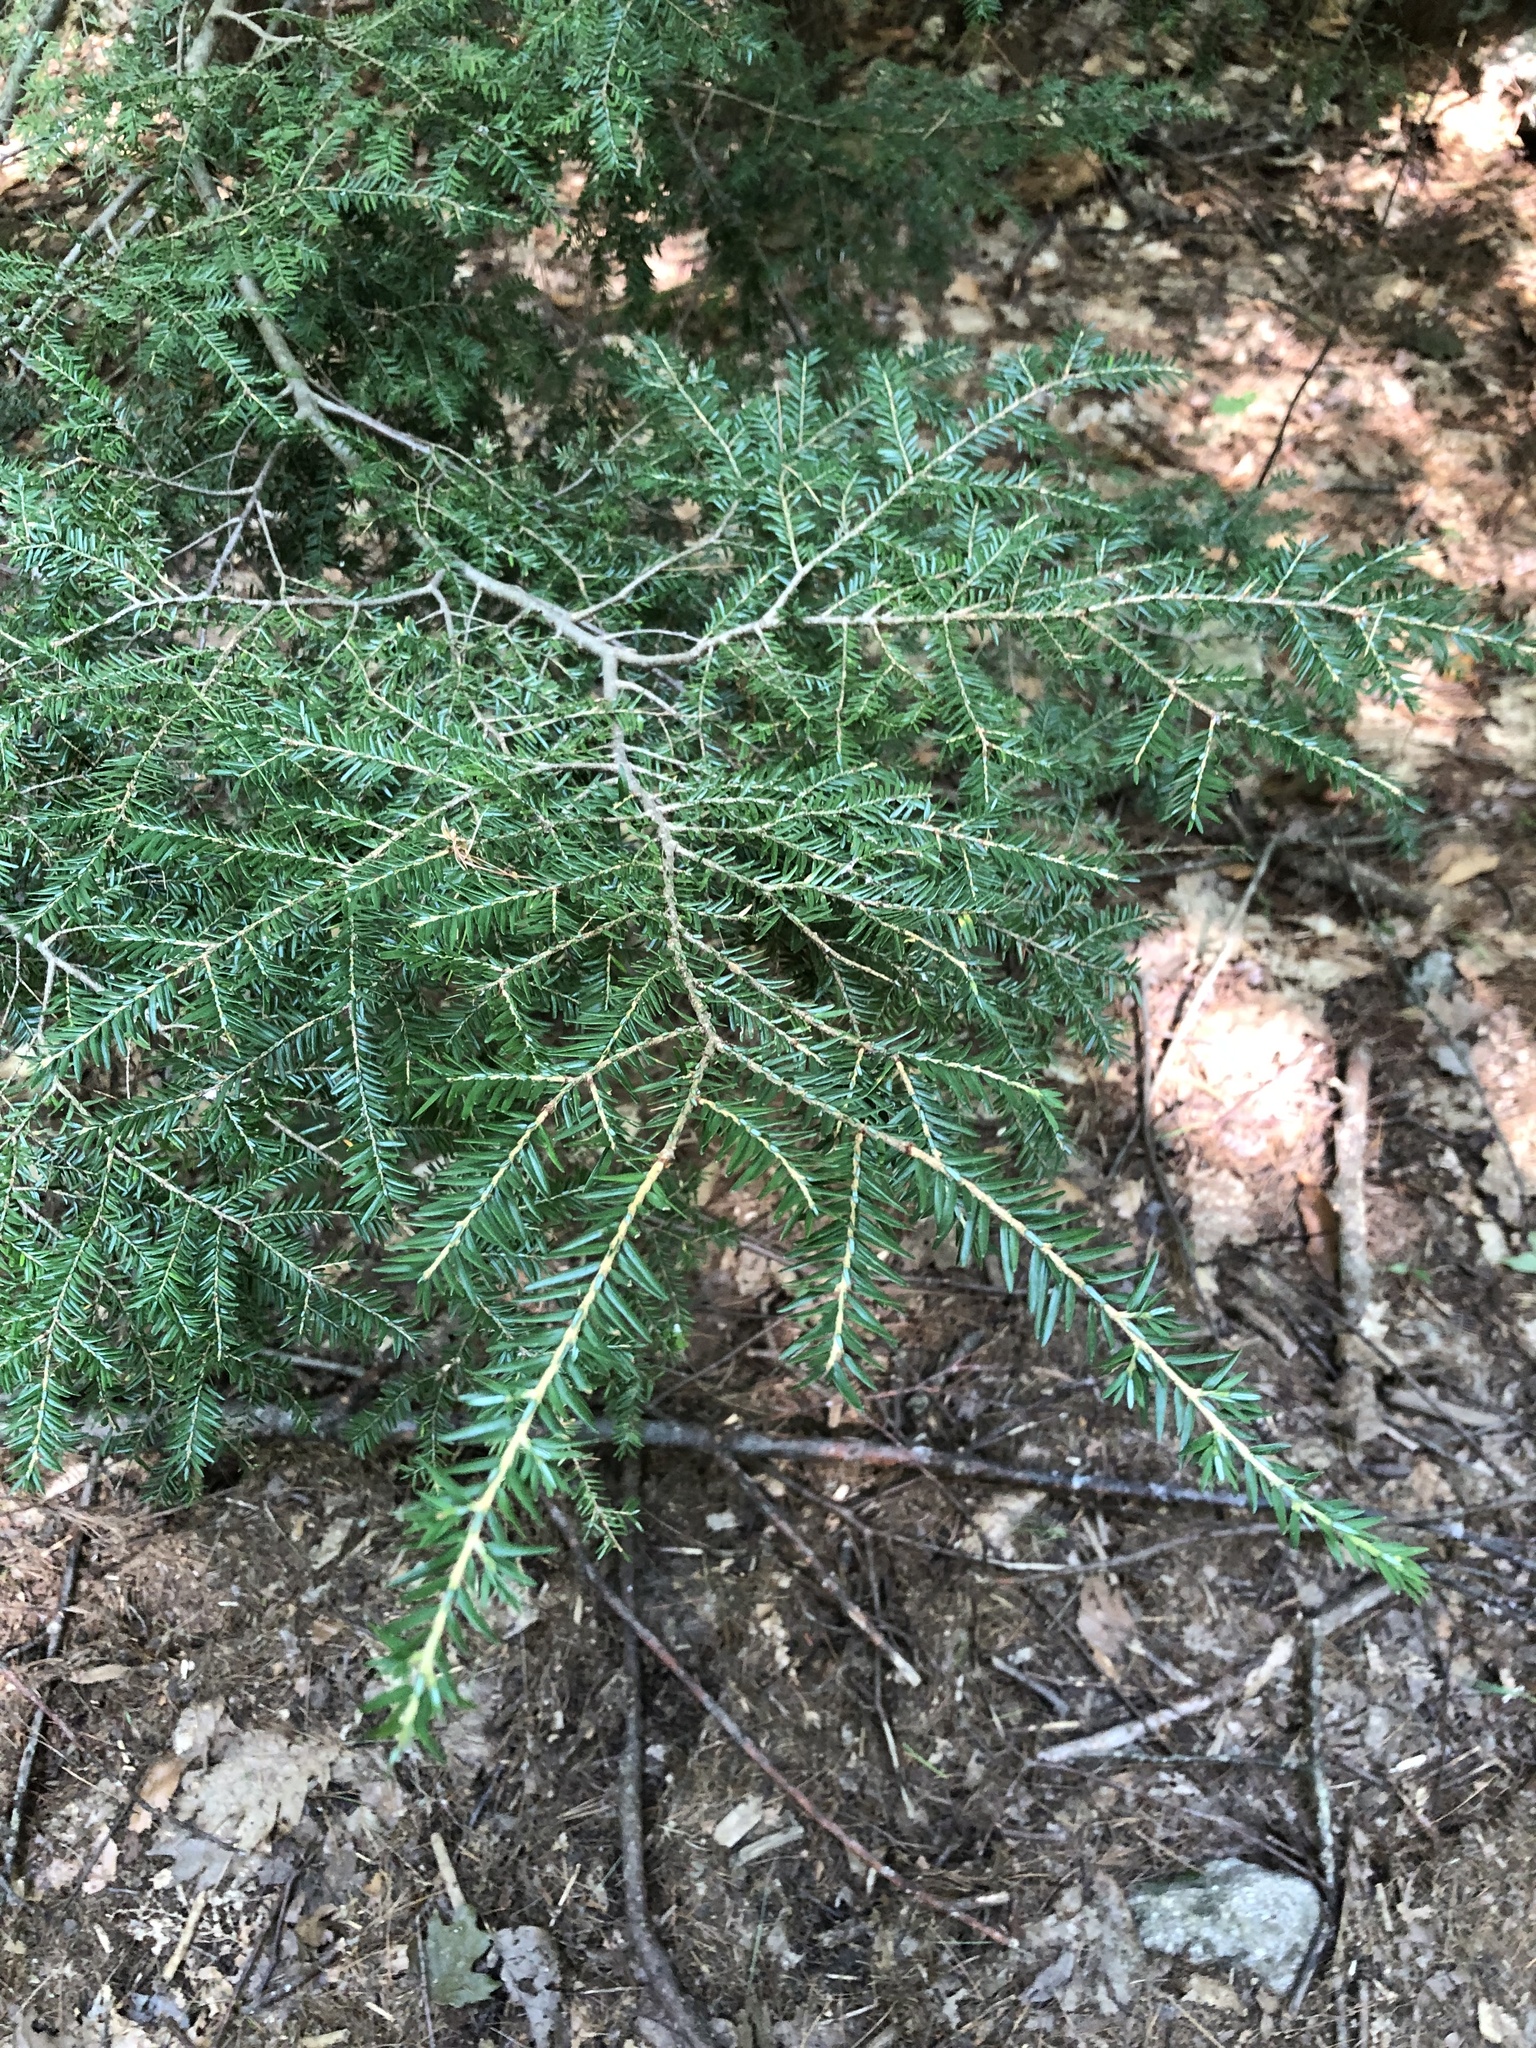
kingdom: Plantae
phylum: Tracheophyta
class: Pinopsida
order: Pinales
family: Pinaceae
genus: Tsuga
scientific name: Tsuga canadensis
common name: Eastern hemlock
